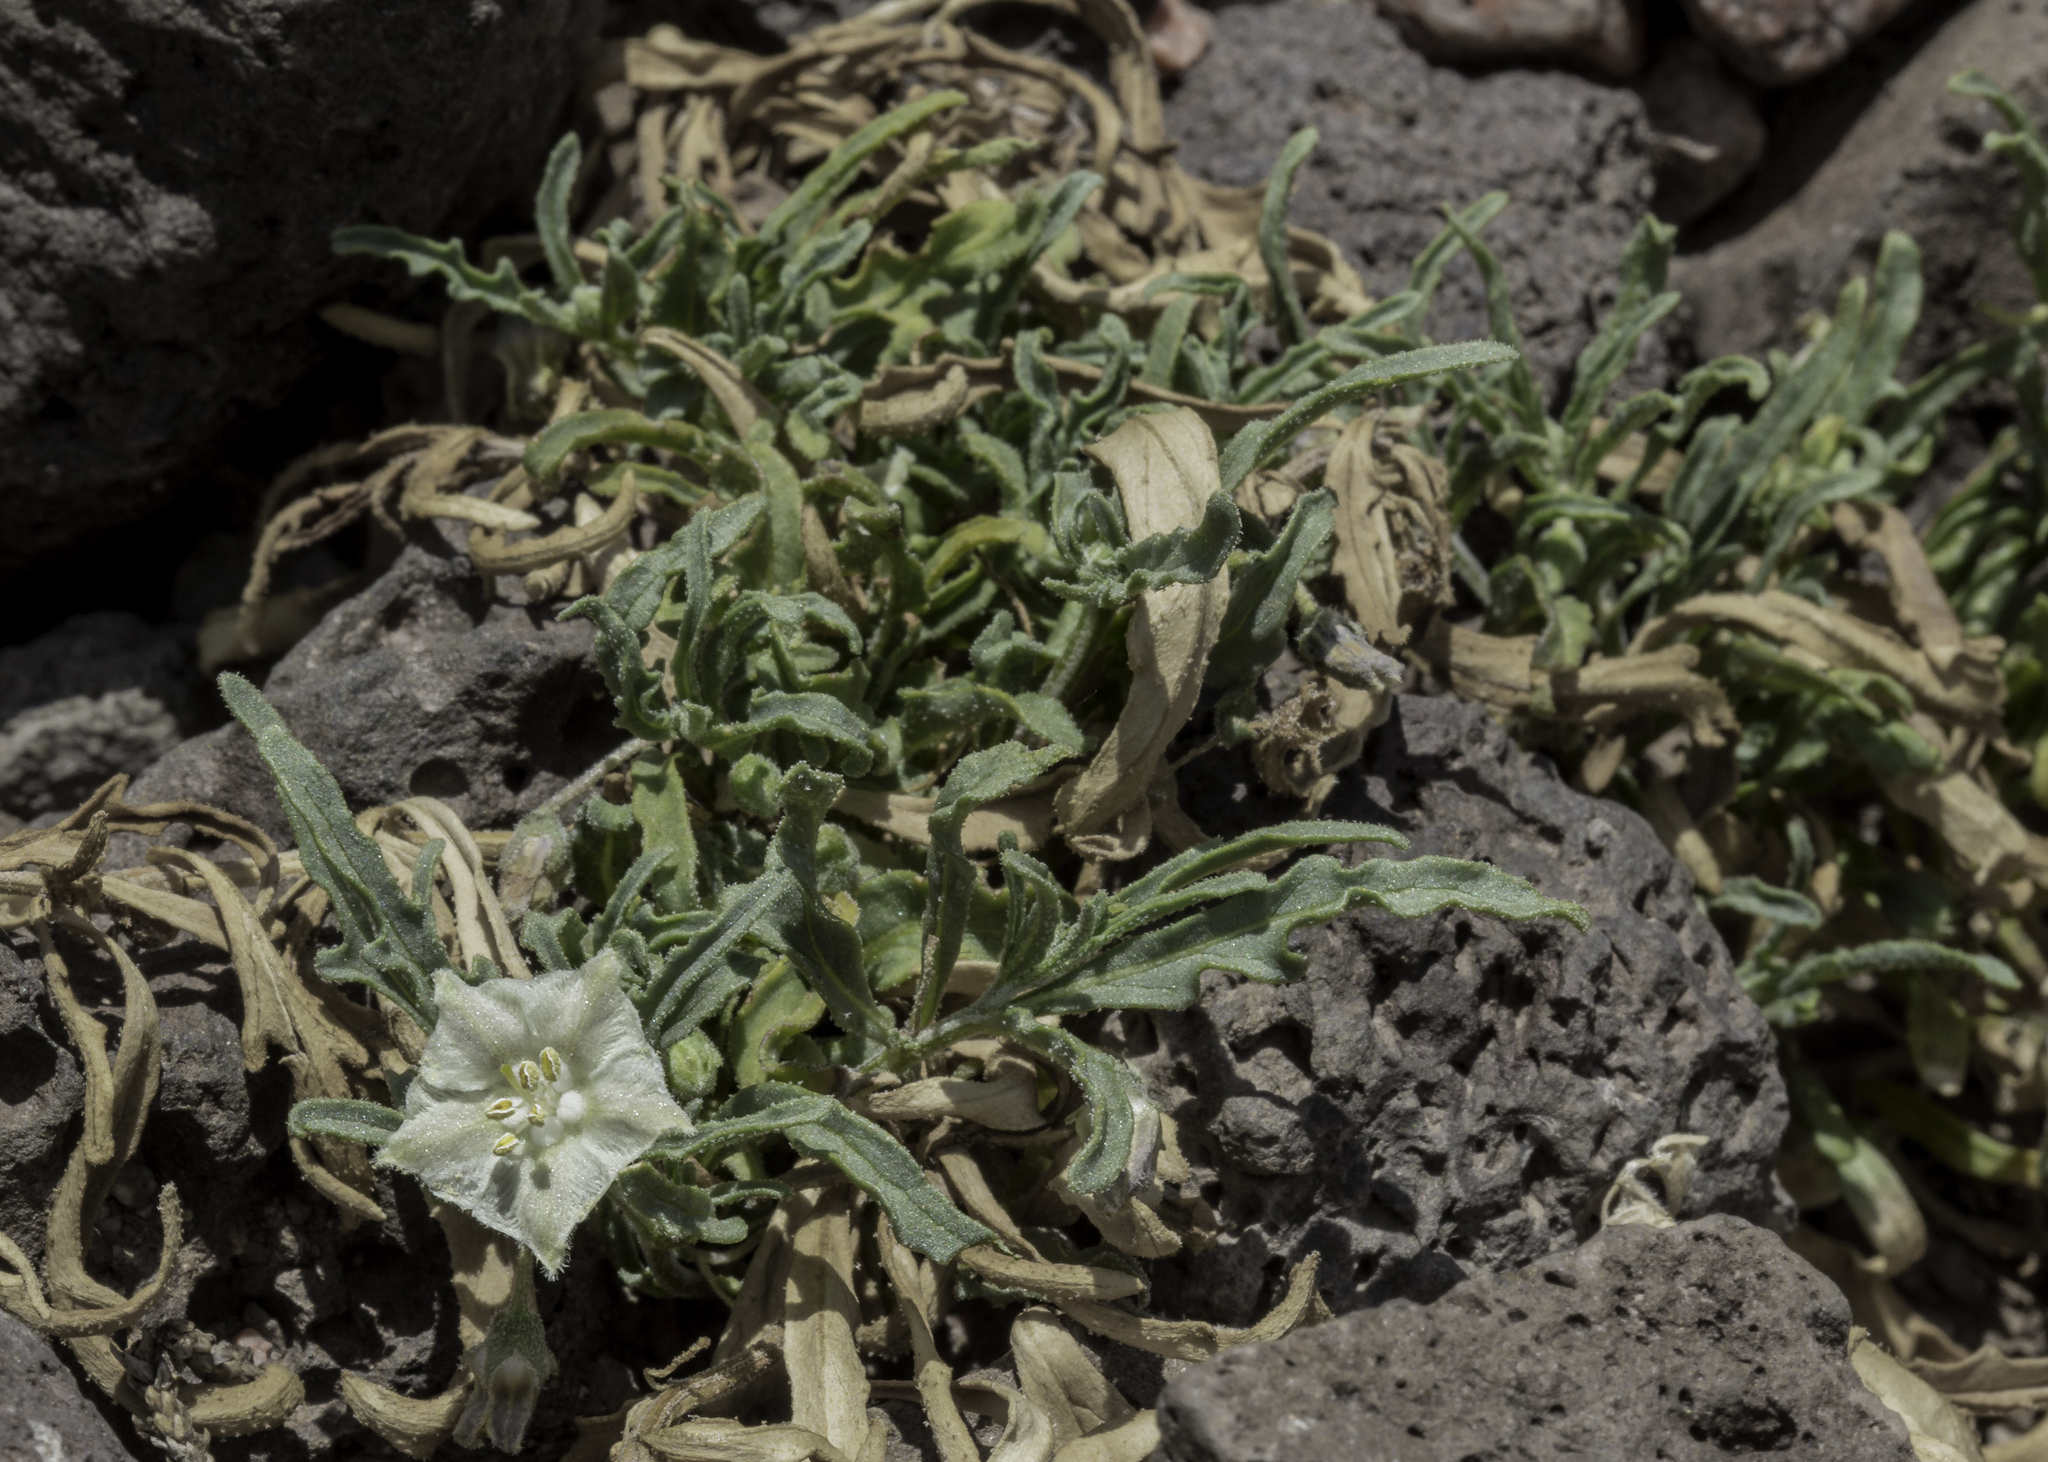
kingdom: Plantae
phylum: Tracheophyta
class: Magnoliopsida
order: Solanales
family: Solanaceae
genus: Chamaesaracha
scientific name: Chamaesaracha coronopus
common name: Smooth chamaesaracha
